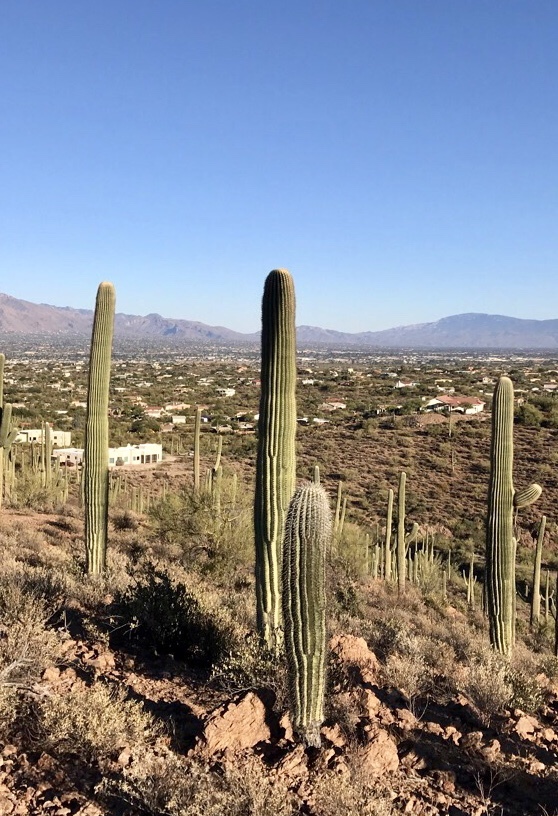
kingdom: Plantae
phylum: Tracheophyta
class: Magnoliopsida
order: Caryophyllales
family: Cactaceae
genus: Carnegiea
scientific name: Carnegiea gigantea
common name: Saguaro
